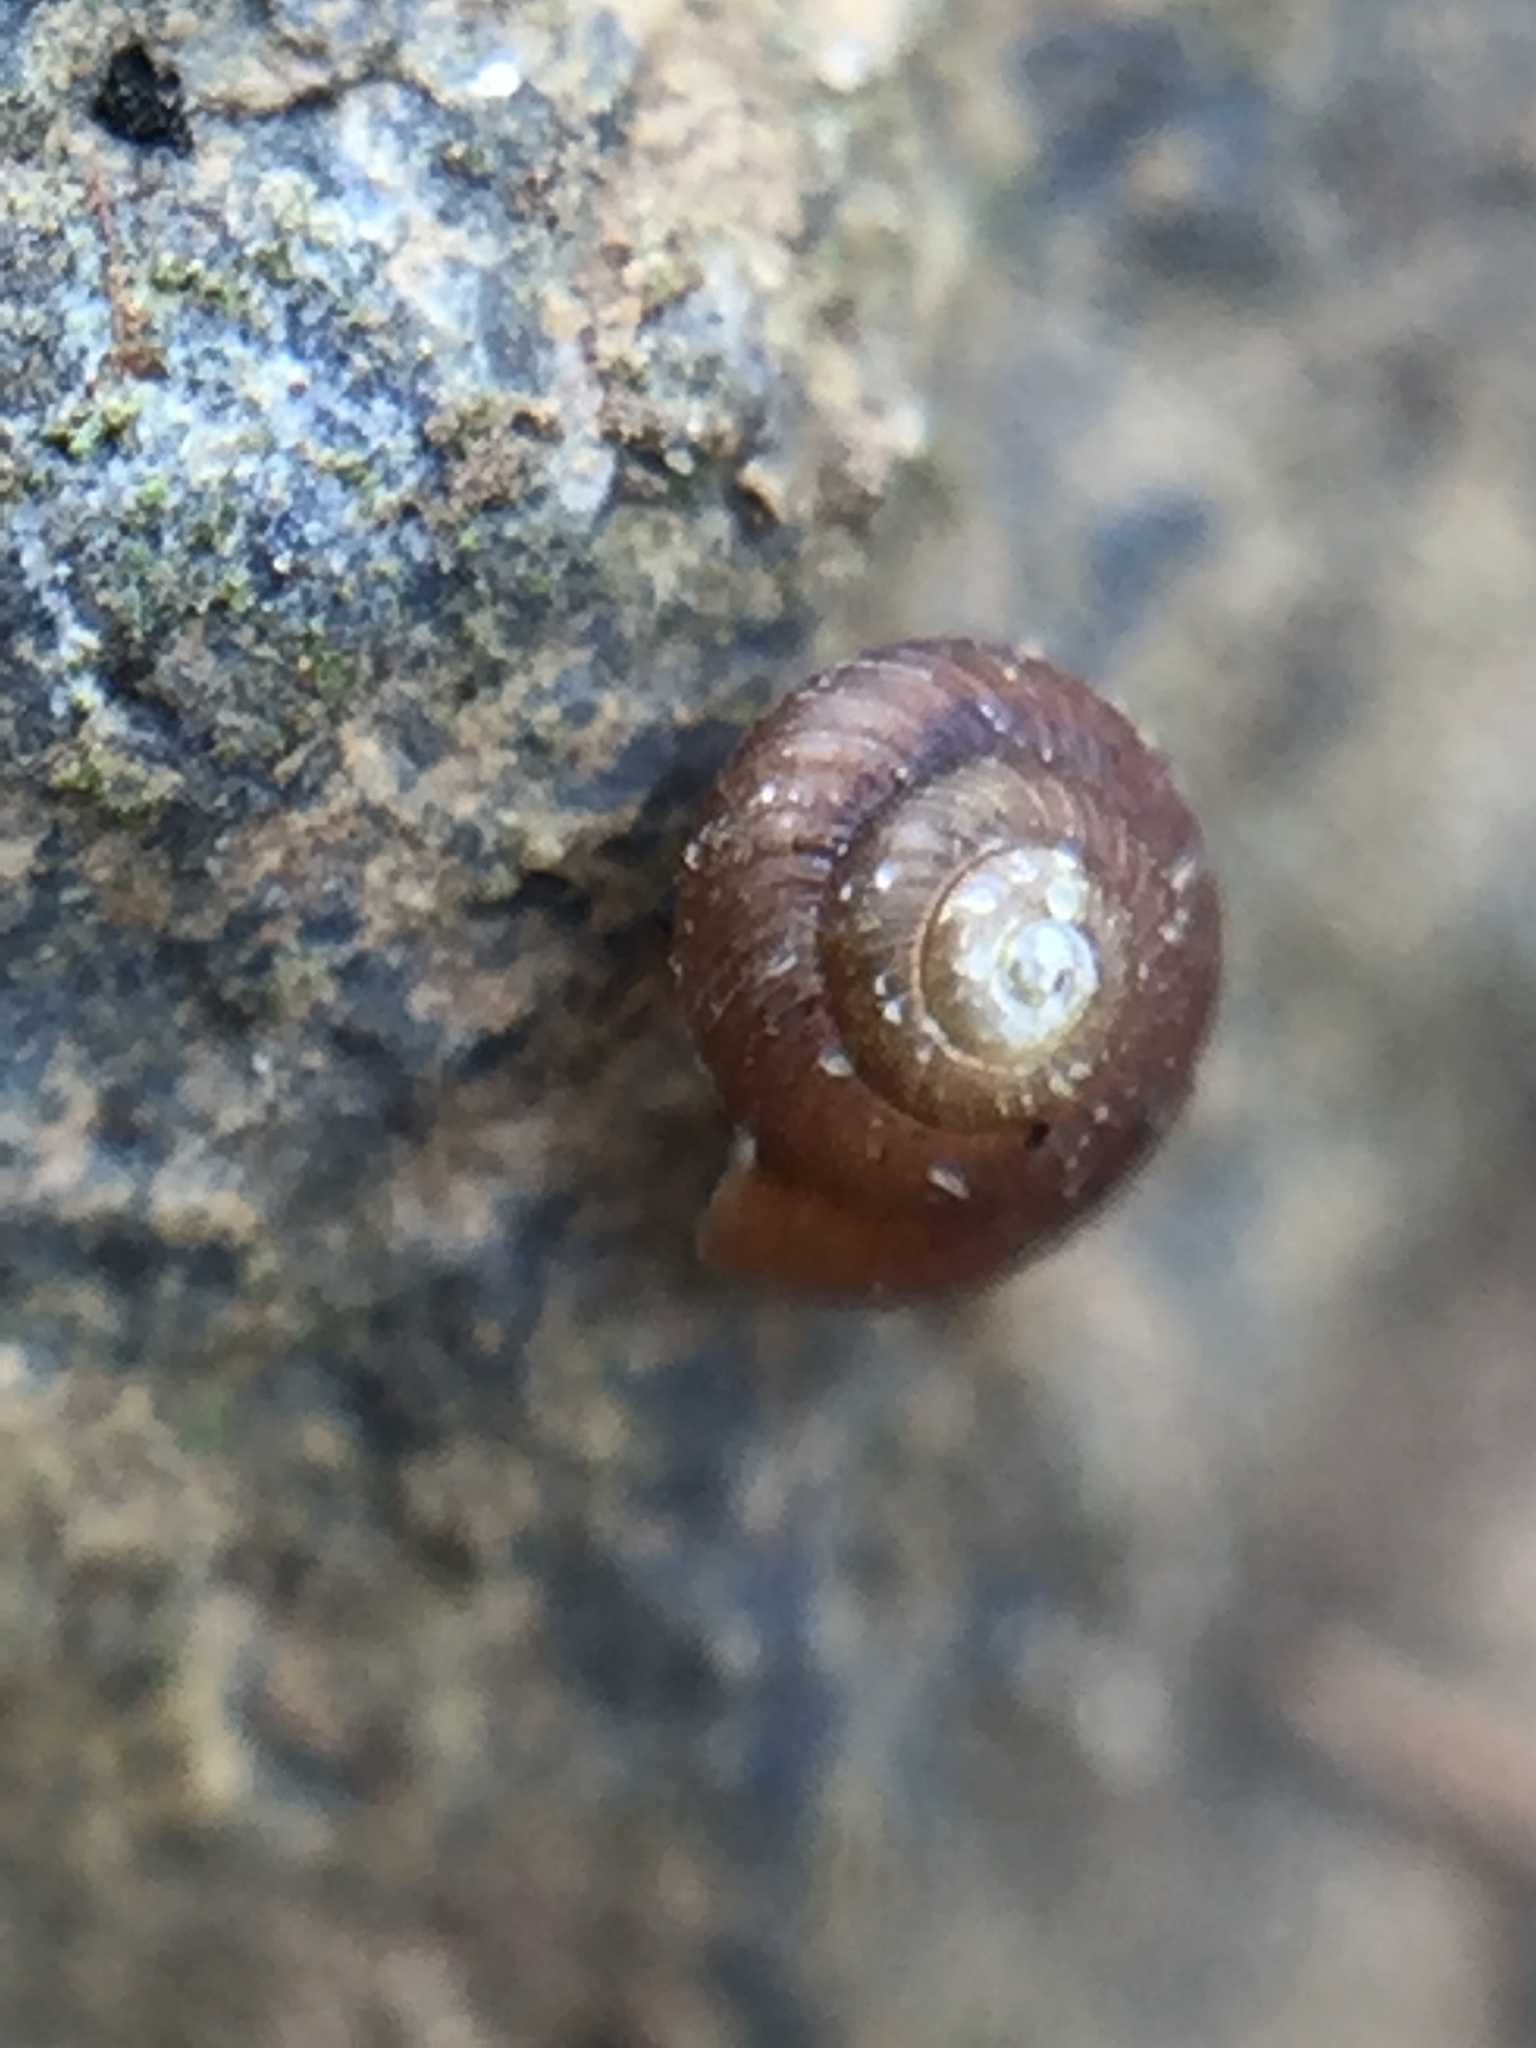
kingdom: Animalia
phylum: Mollusca
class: Gastropoda
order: Stylommatophora
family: Punctidae
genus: Paralaoma
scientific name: Paralaoma servilis
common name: Pinhead spot
